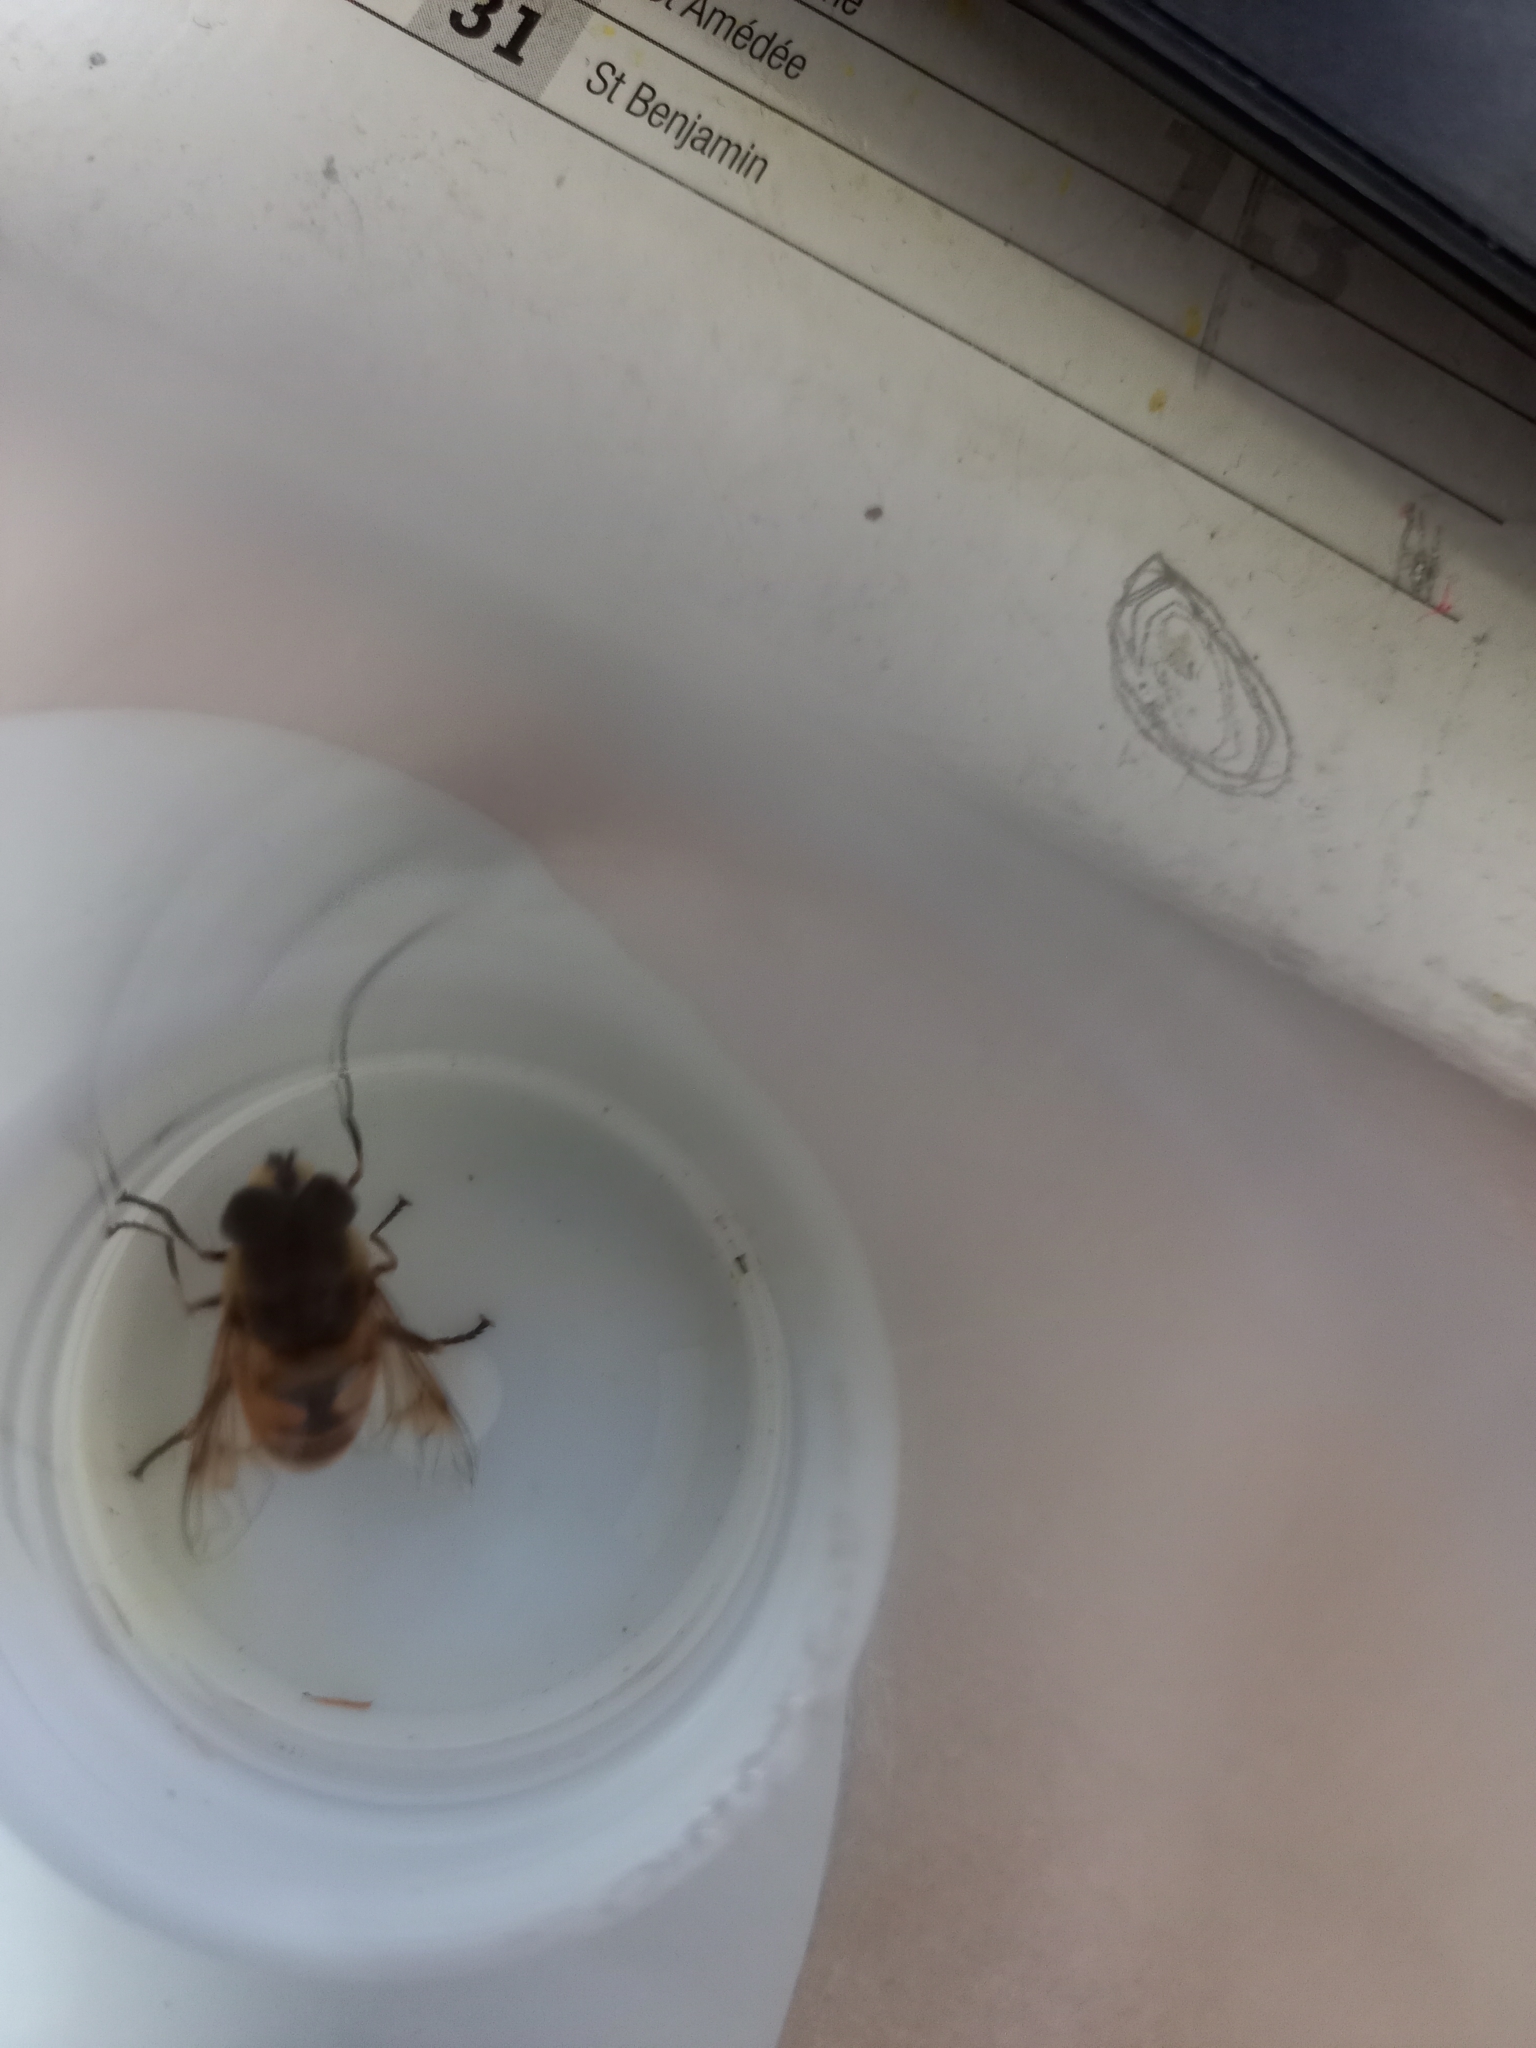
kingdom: Animalia
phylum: Arthropoda
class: Insecta
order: Diptera
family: Syrphidae
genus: Eristalis
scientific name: Eristalis tenax
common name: Drone fly
